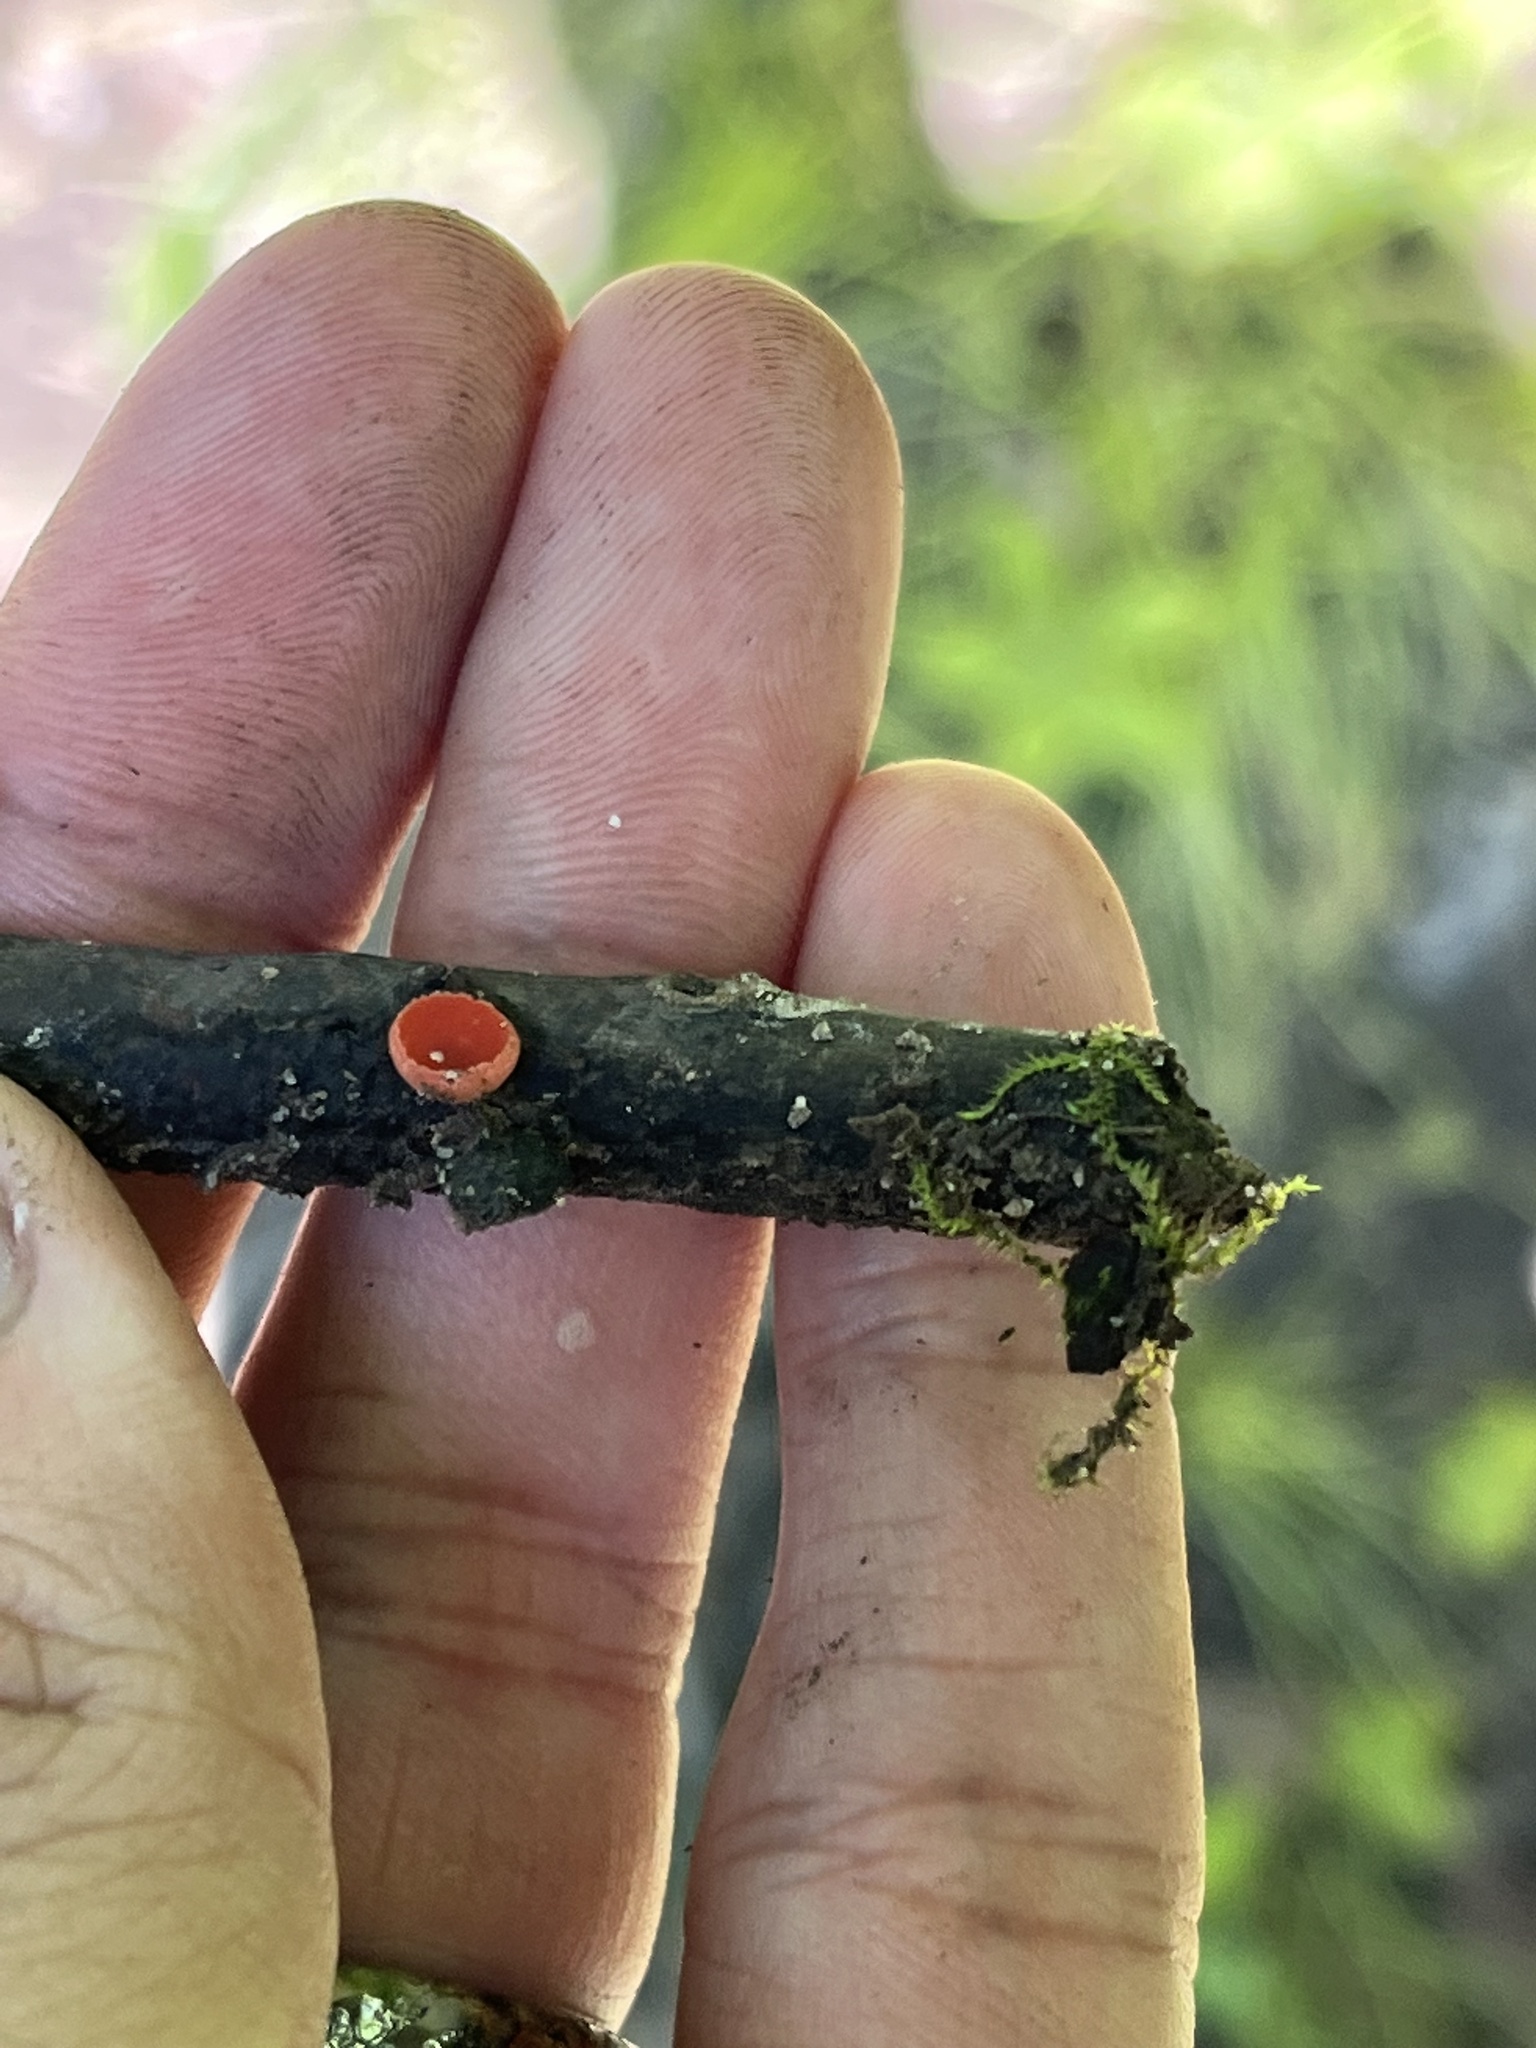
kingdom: Fungi
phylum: Ascomycota
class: Pezizomycetes
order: Pezizales
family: Sarcoscyphaceae
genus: Sarcoscypha
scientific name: Sarcoscypha austriaca
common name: Scarlet elfcup
